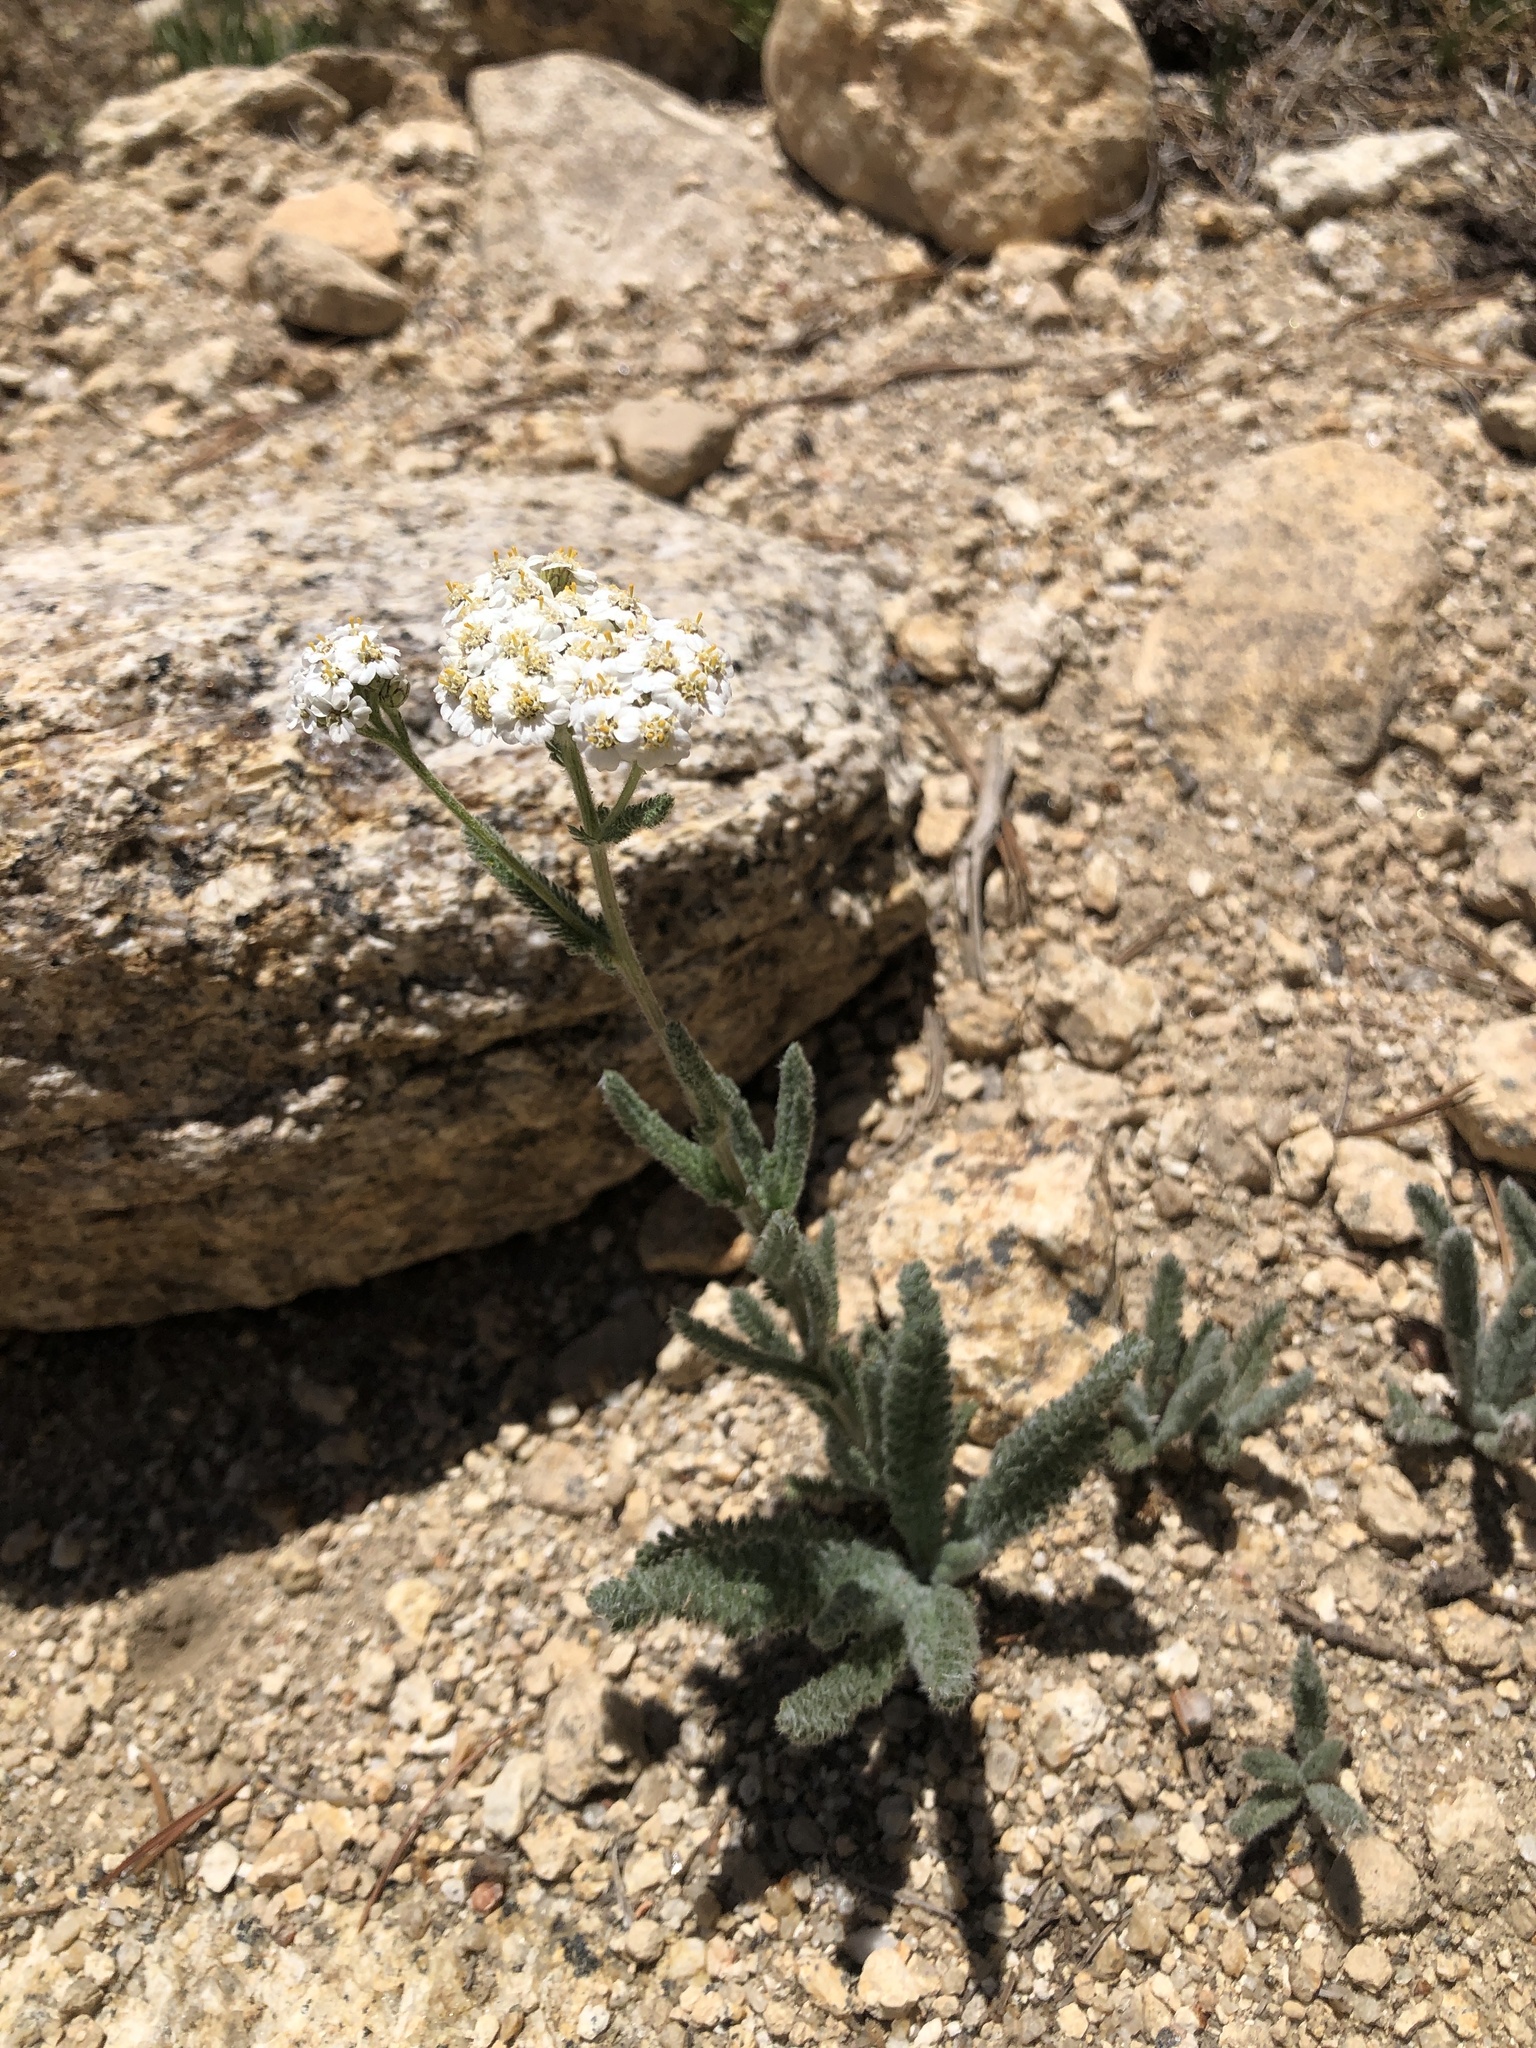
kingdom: Plantae
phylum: Tracheophyta
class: Magnoliopsida
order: Asterales
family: Asteraceae
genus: Achillea
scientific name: Achillea millefolium
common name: Yarrow
